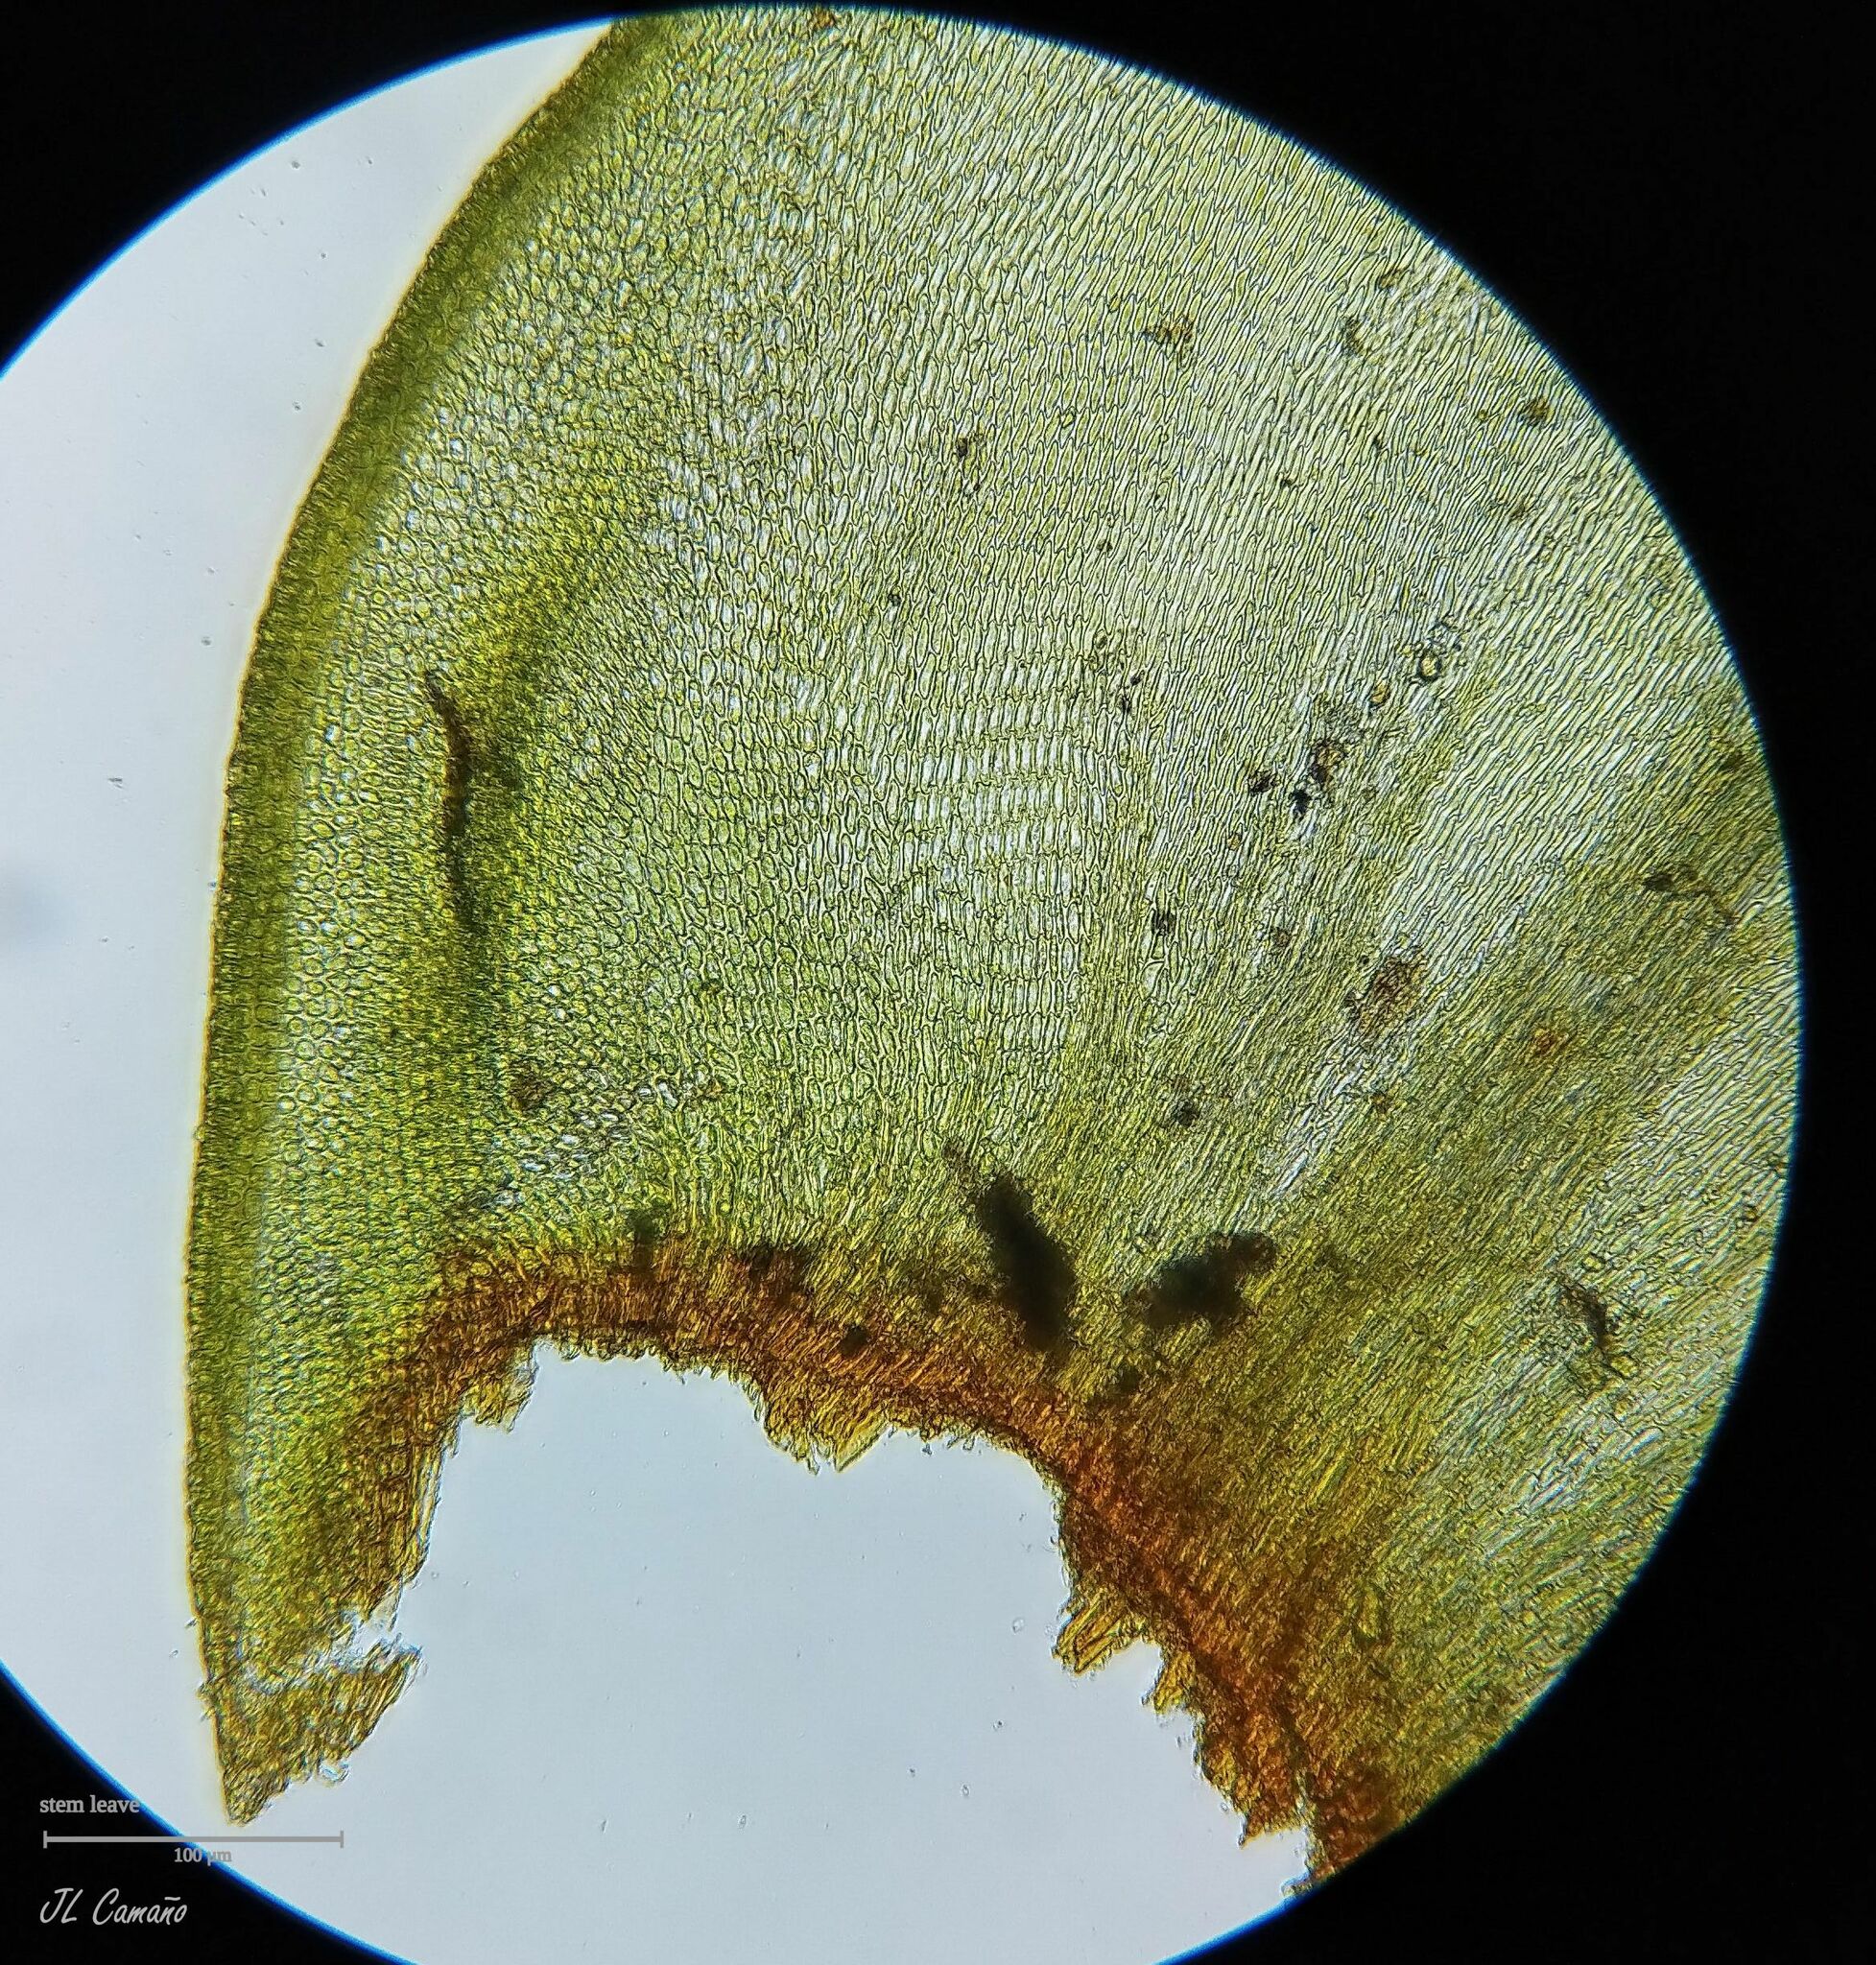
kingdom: Plantae
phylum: Bryophyta
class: Bryopsida
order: Hypnales
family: Antitrichiaceae
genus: Antitrichia
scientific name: Antitrichia curtipendula
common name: Pendulous wing-moss
